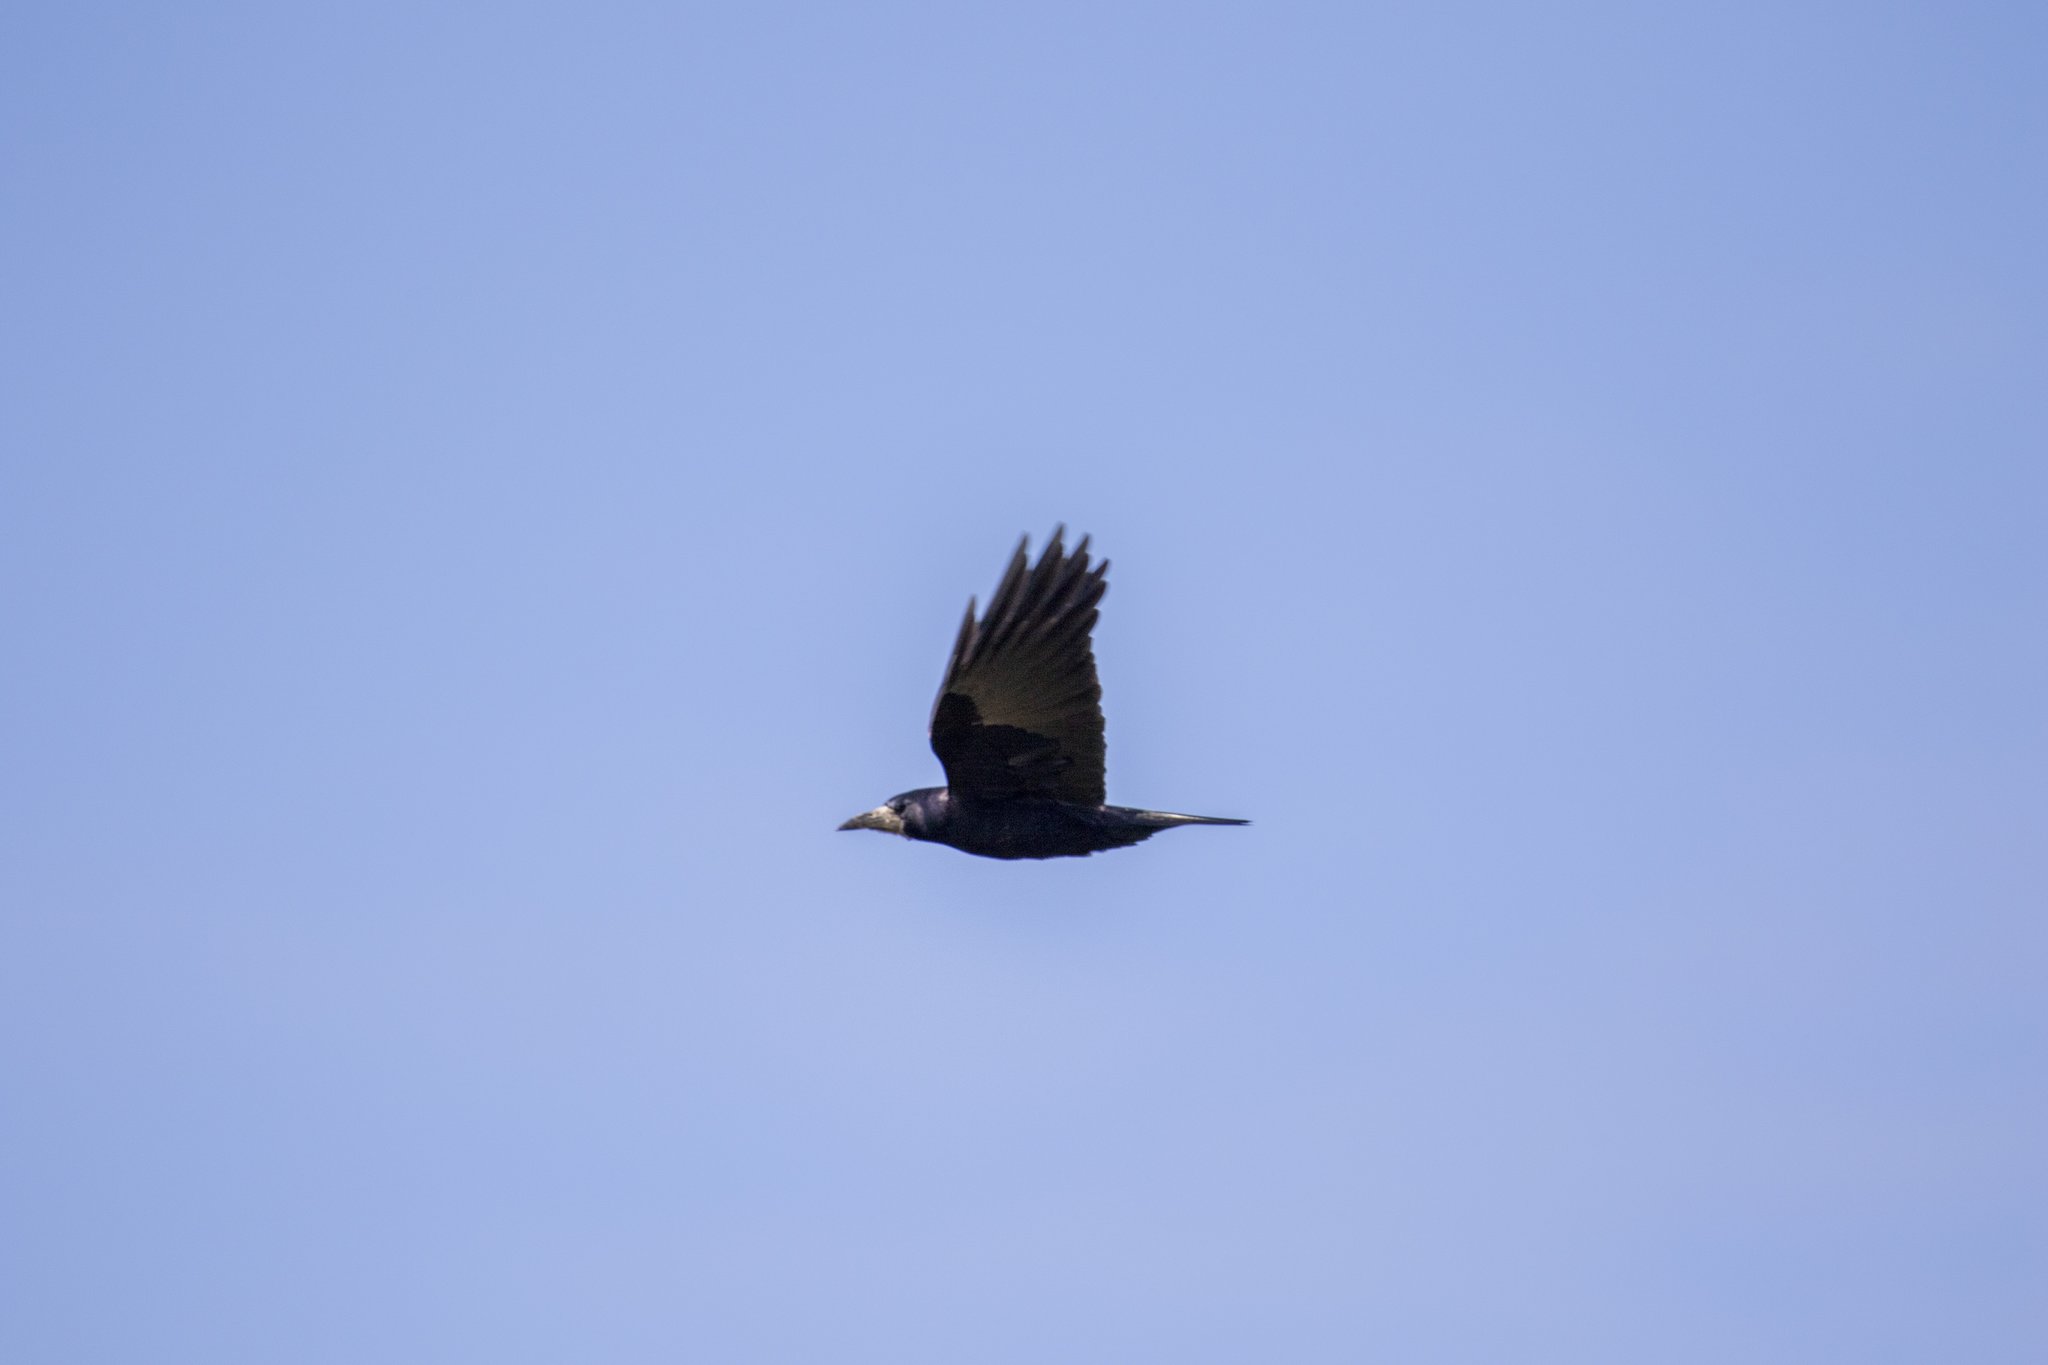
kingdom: Animalia
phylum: Chordata
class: Aves
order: Passeriformes
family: Corvidae
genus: Corvus
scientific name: Corvus frugilegus
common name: Rook
